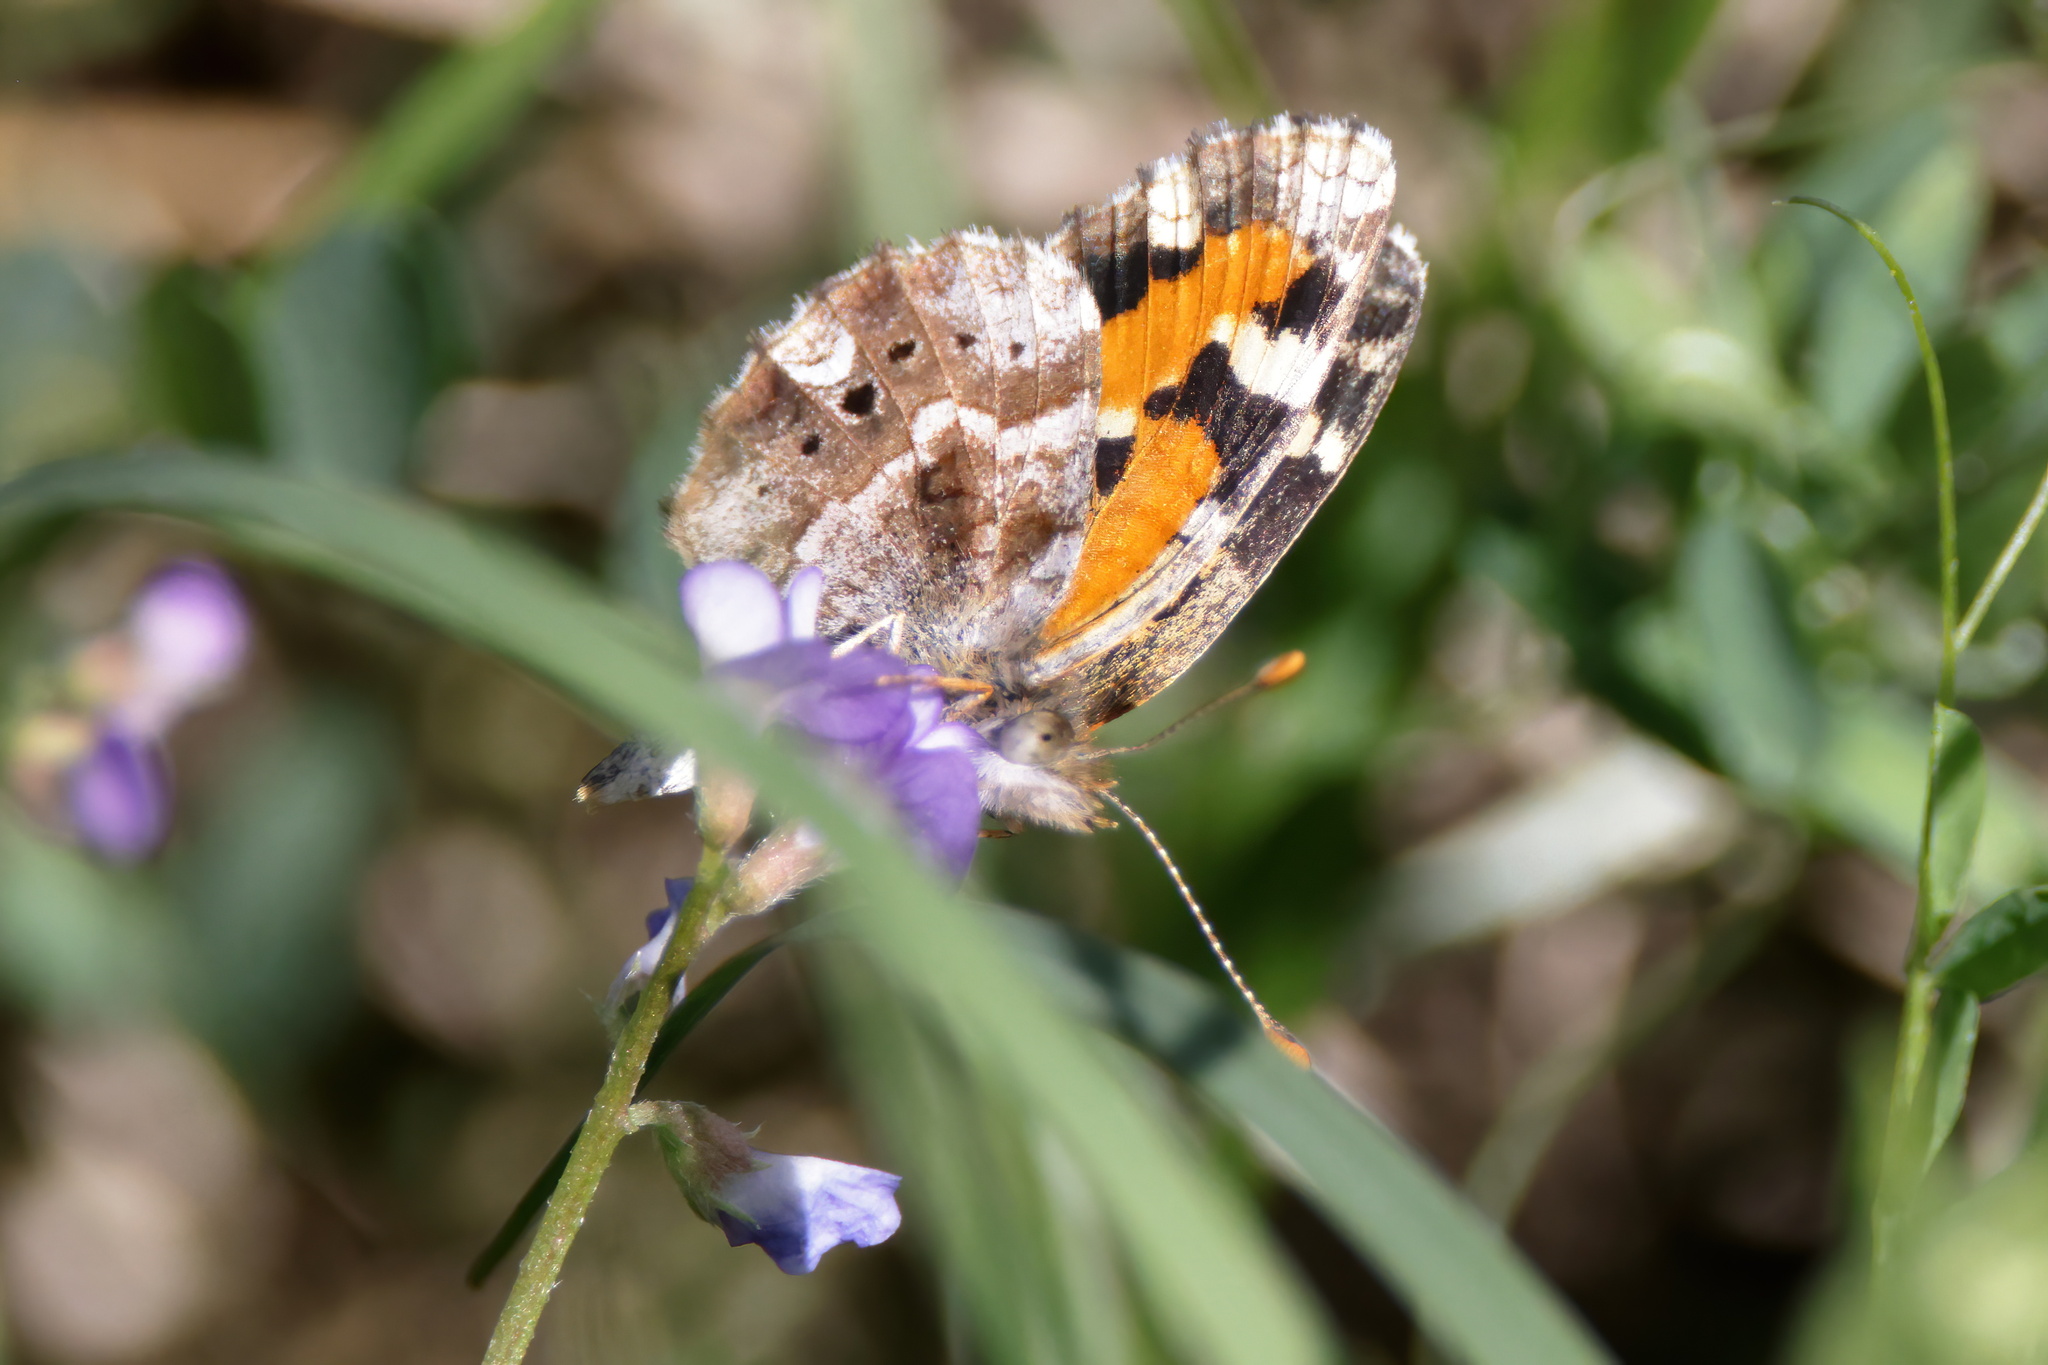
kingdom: Animalia
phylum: Arthropoda
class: Insecta
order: Lepidoptera
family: Nymphalidae
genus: Phyciodes
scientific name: Phyciodes phaon
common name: Phaon crescent
